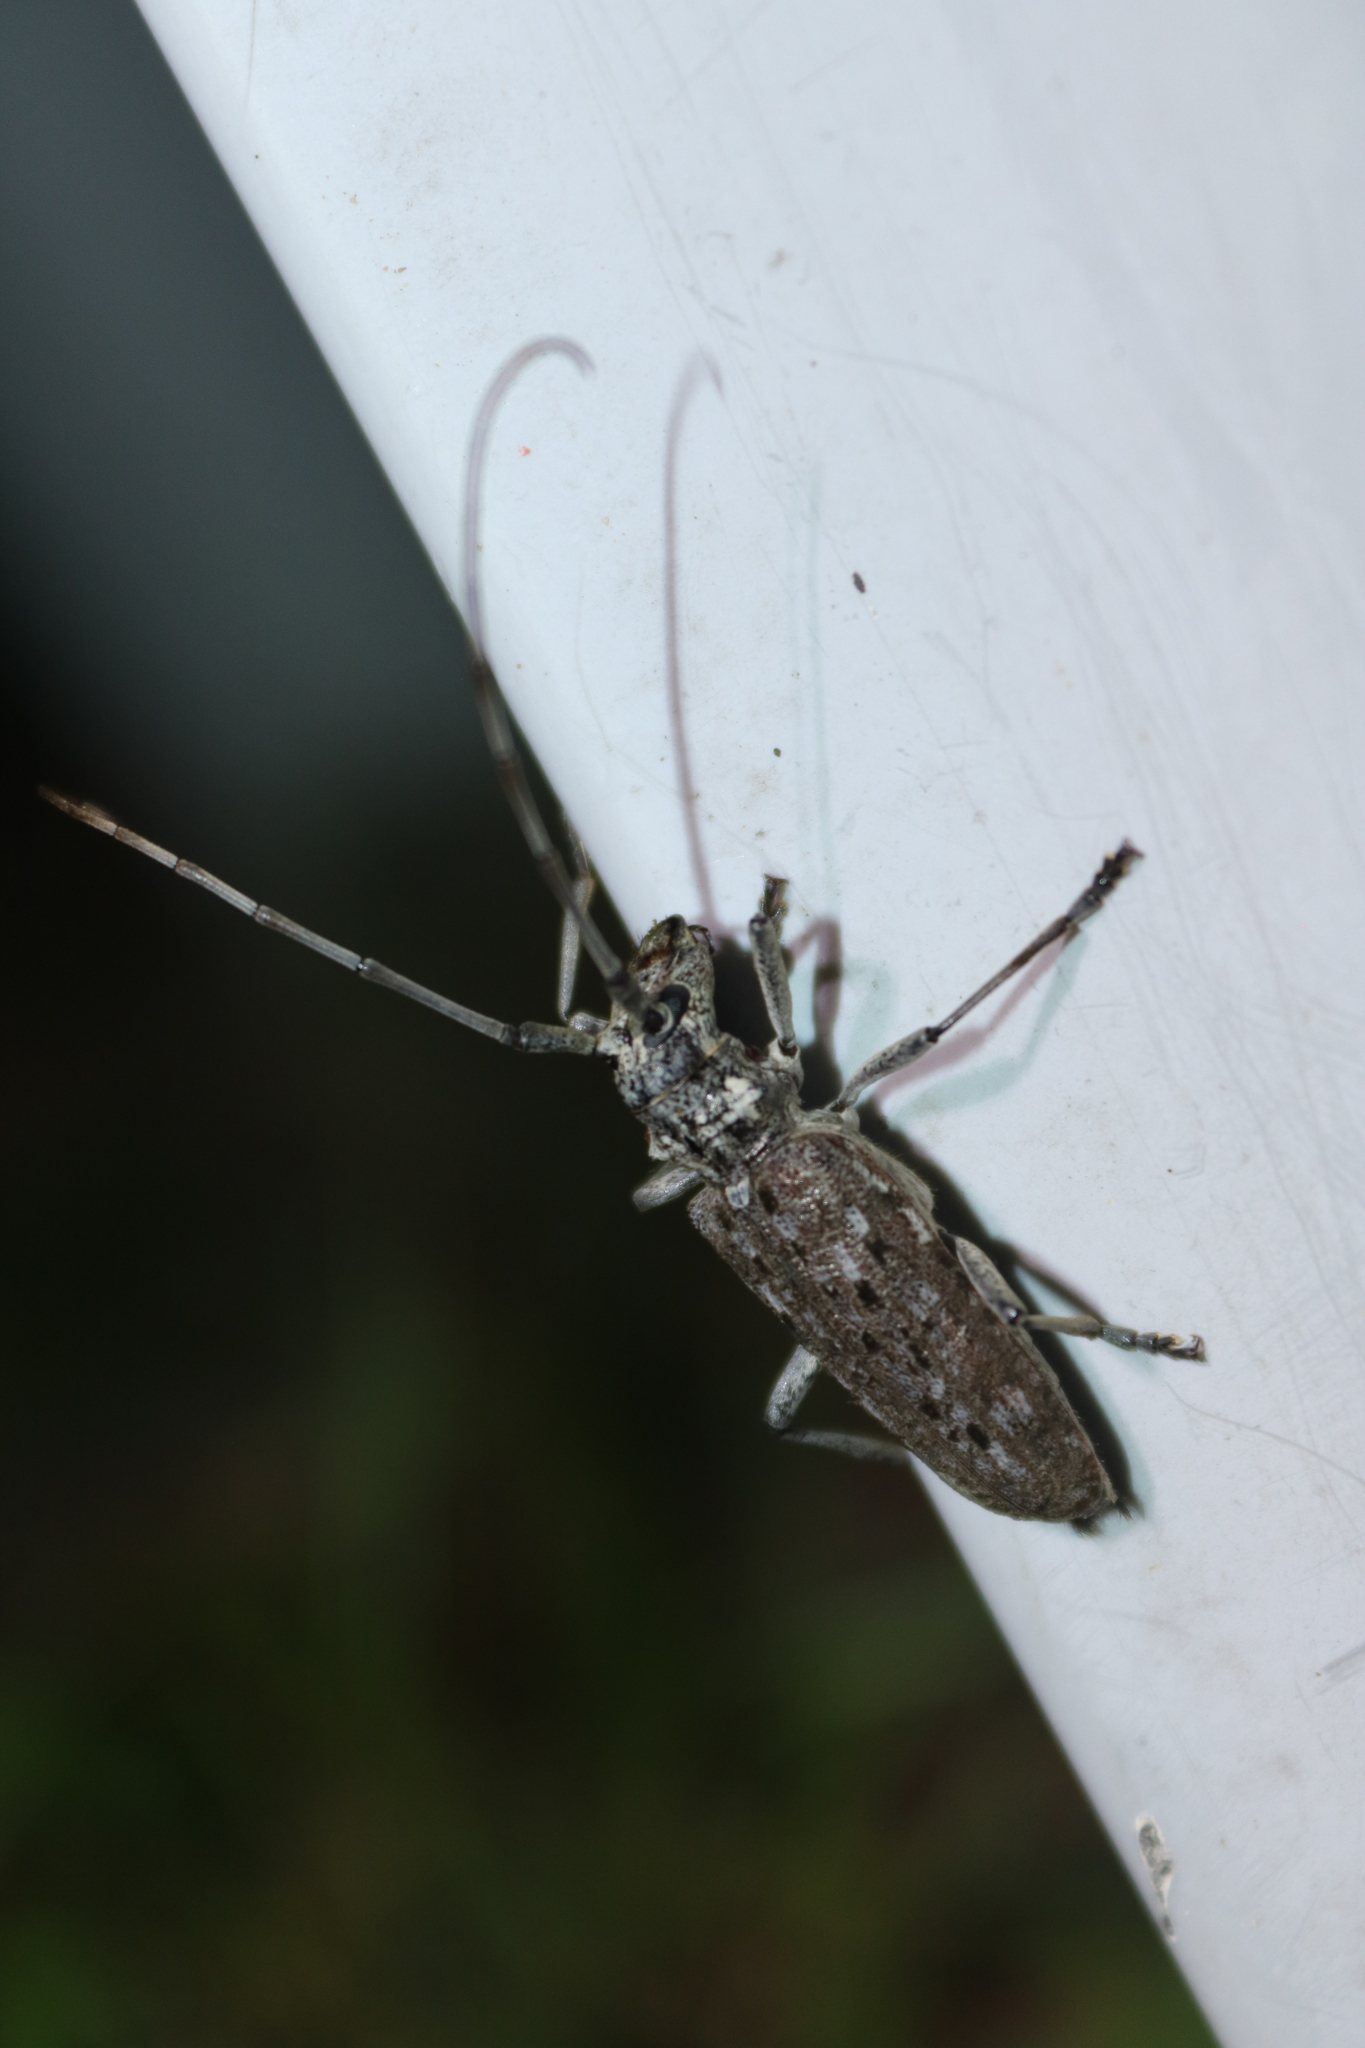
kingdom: Animalia
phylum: Arthropoda
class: Insecta
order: Coleoptera
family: Cerambycidae
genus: Monochamus
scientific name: Monochamus notatus
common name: Northeastern pine sawyer beetle
